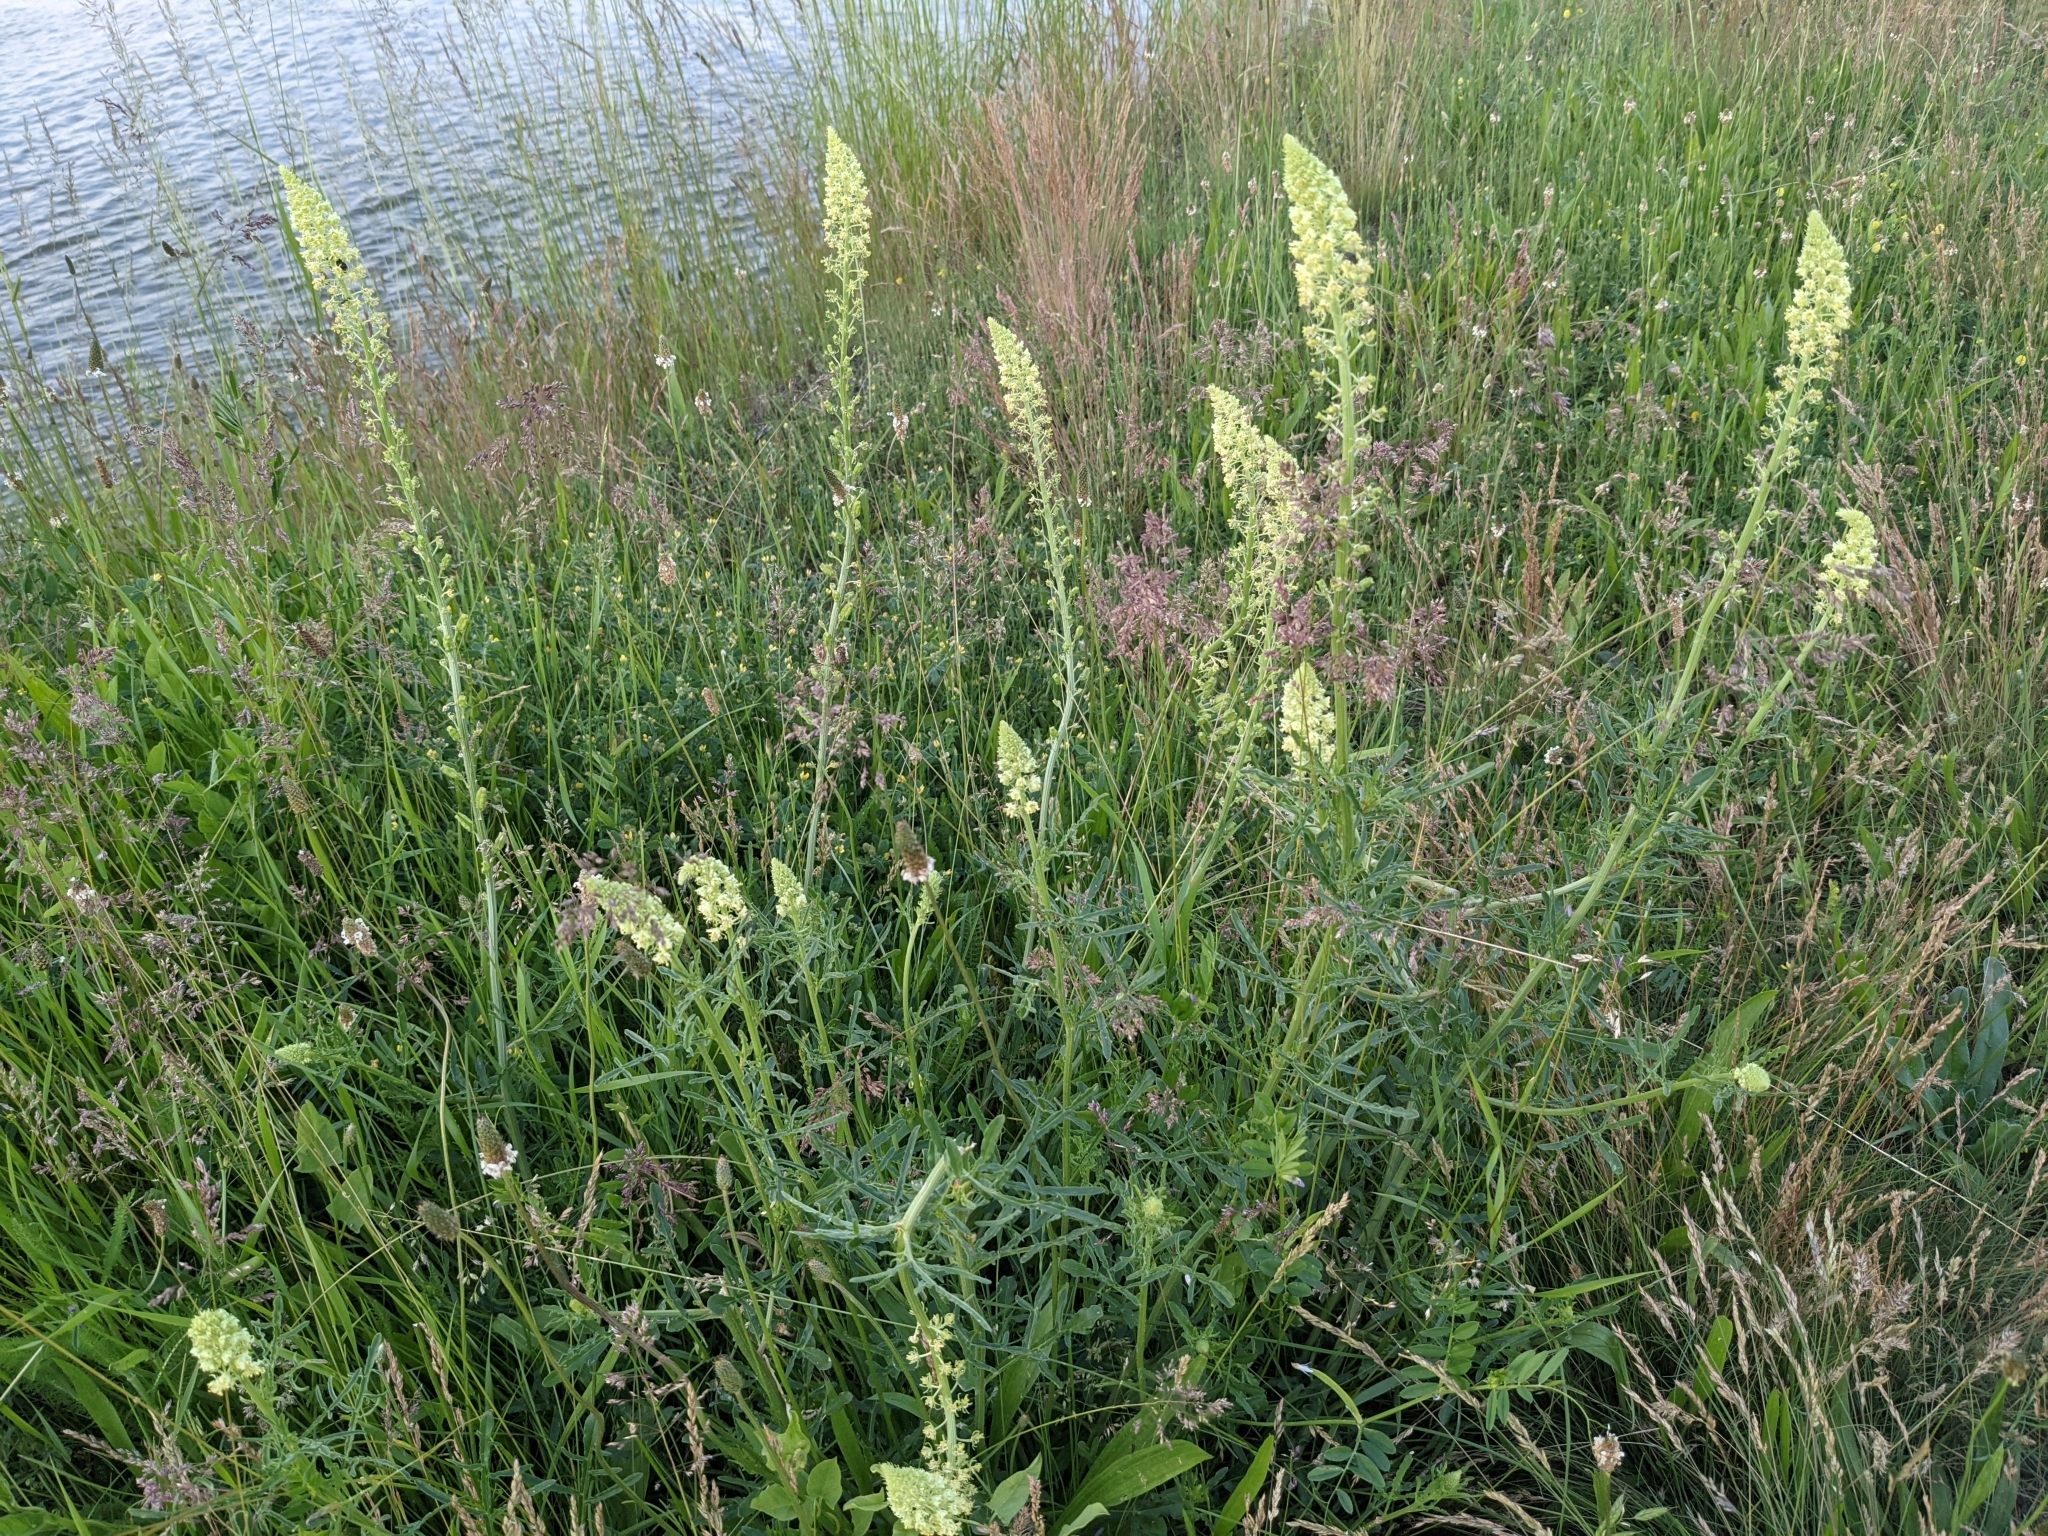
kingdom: Plantae
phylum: Tracheophyta
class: Magnoliopsida
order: Brassicales
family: Resedaceae
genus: Reseda
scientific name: Reseda lutea
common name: Wild mignonette
